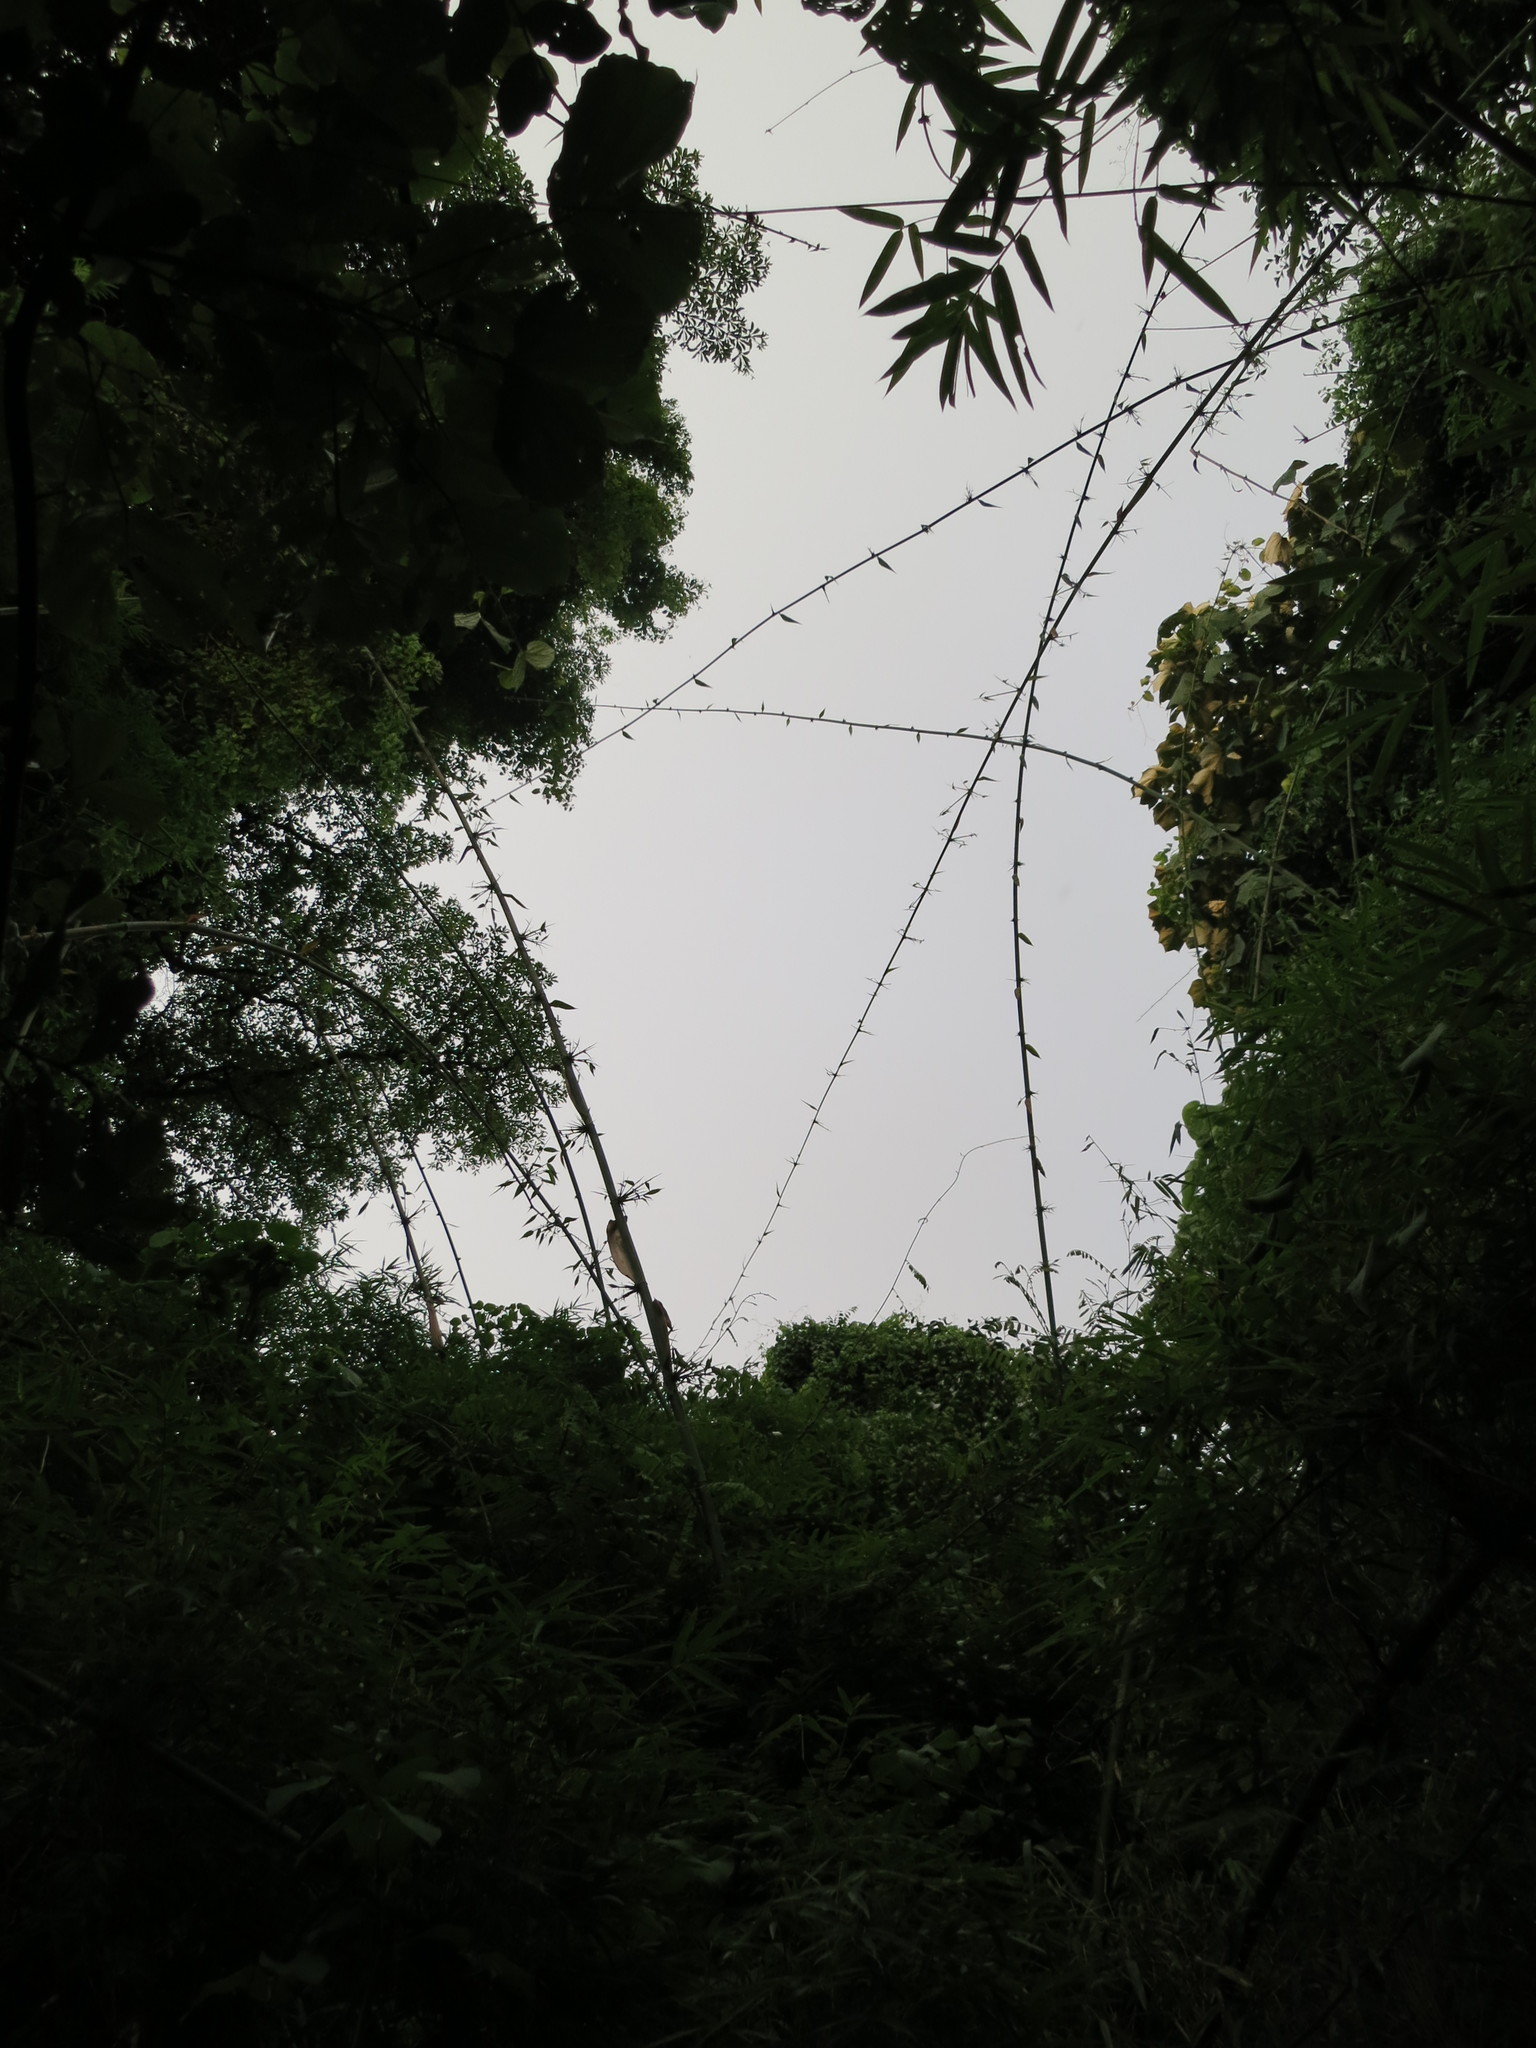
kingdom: Plantae
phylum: Tracheophyta
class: Liliopsida
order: Poales
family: Poaceae
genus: Valiha
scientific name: Valiha diffusa
